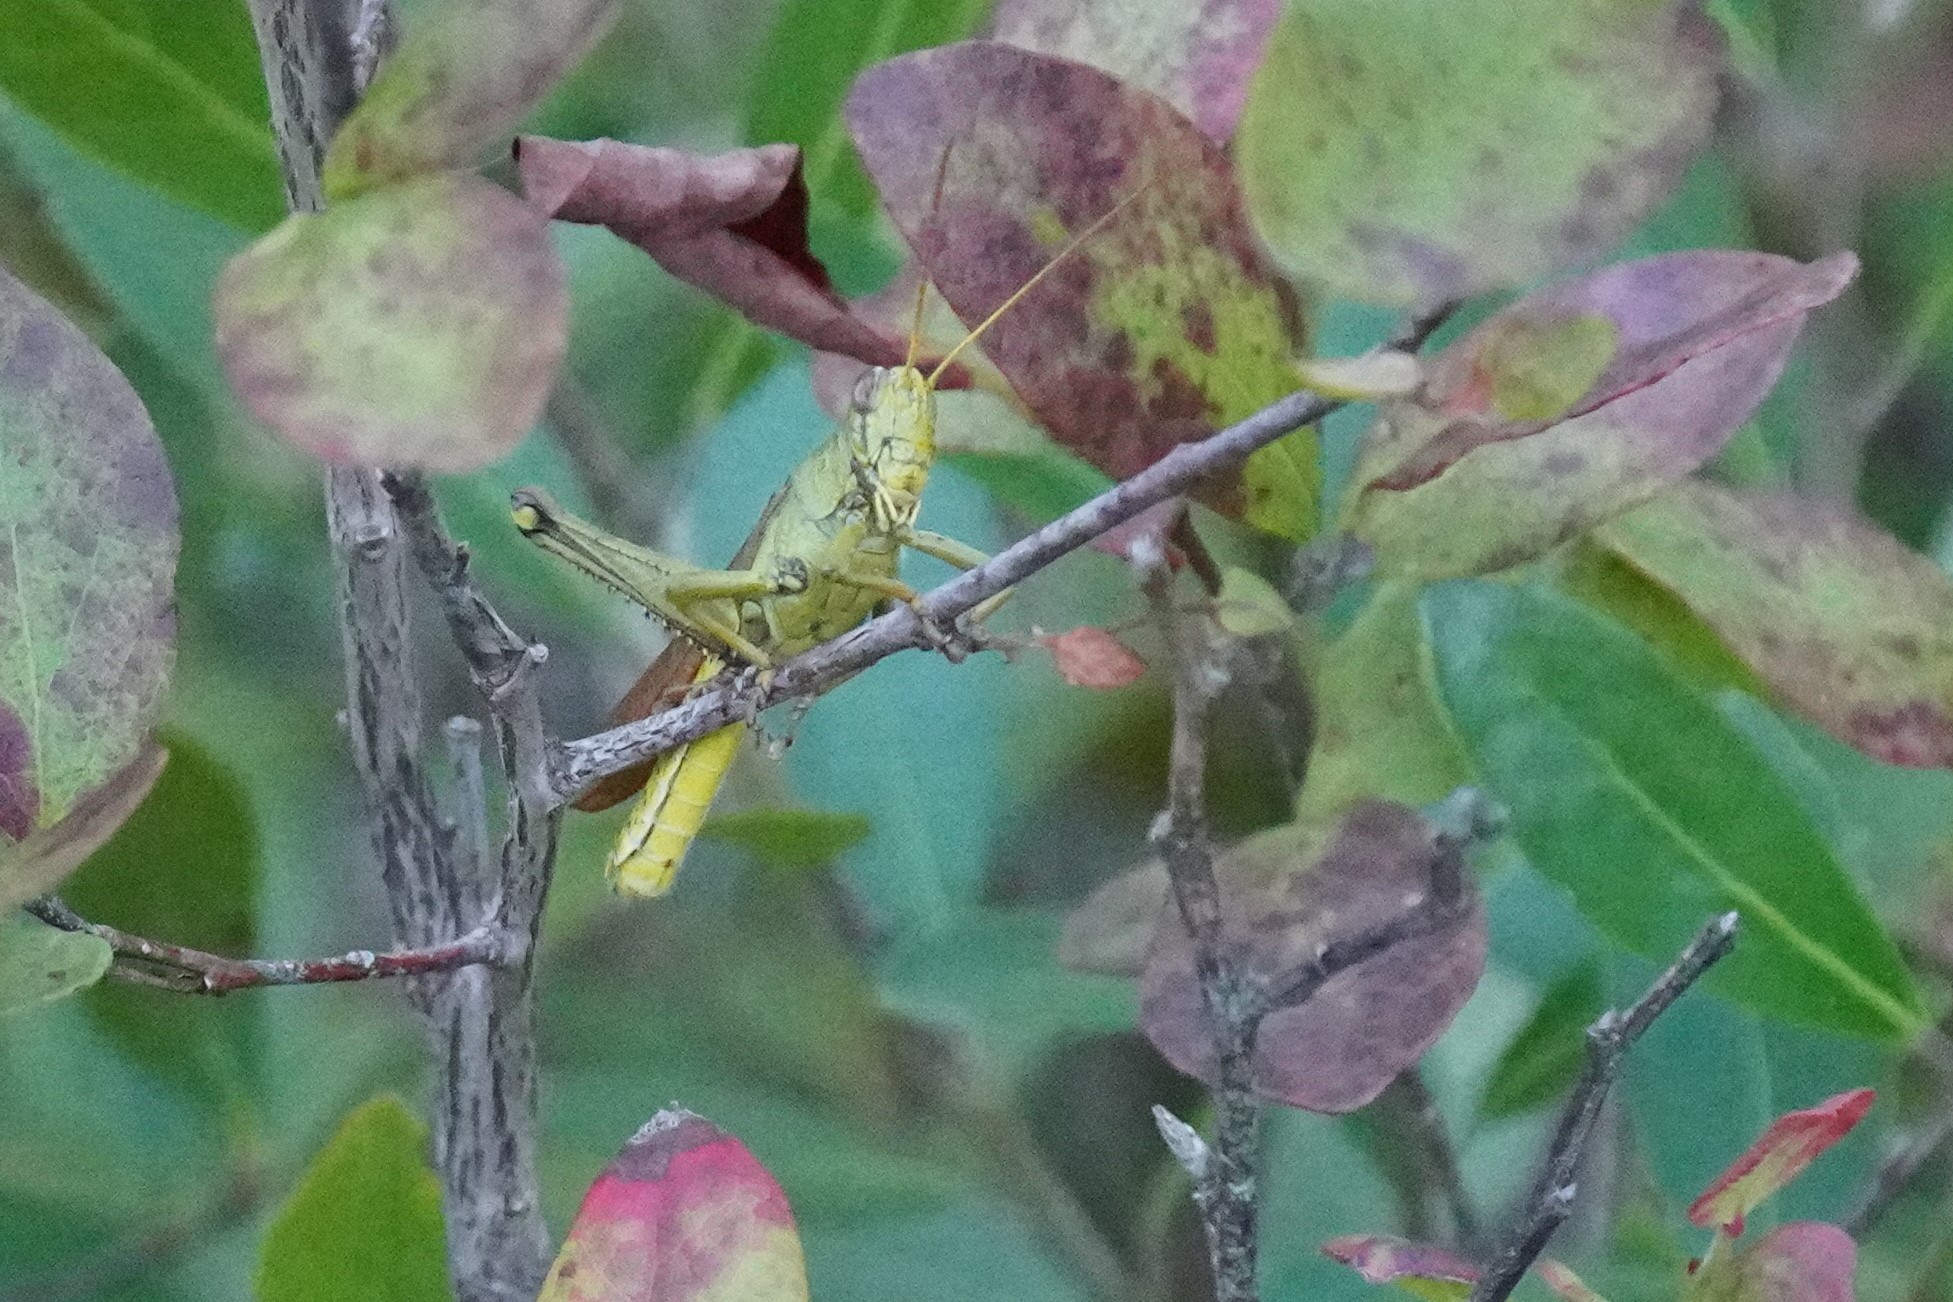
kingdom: Animalia
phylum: Arthropoda
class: Insecta
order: Orthoptera
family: Acrididae
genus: Schistocerca
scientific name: Schistocerca lineata
